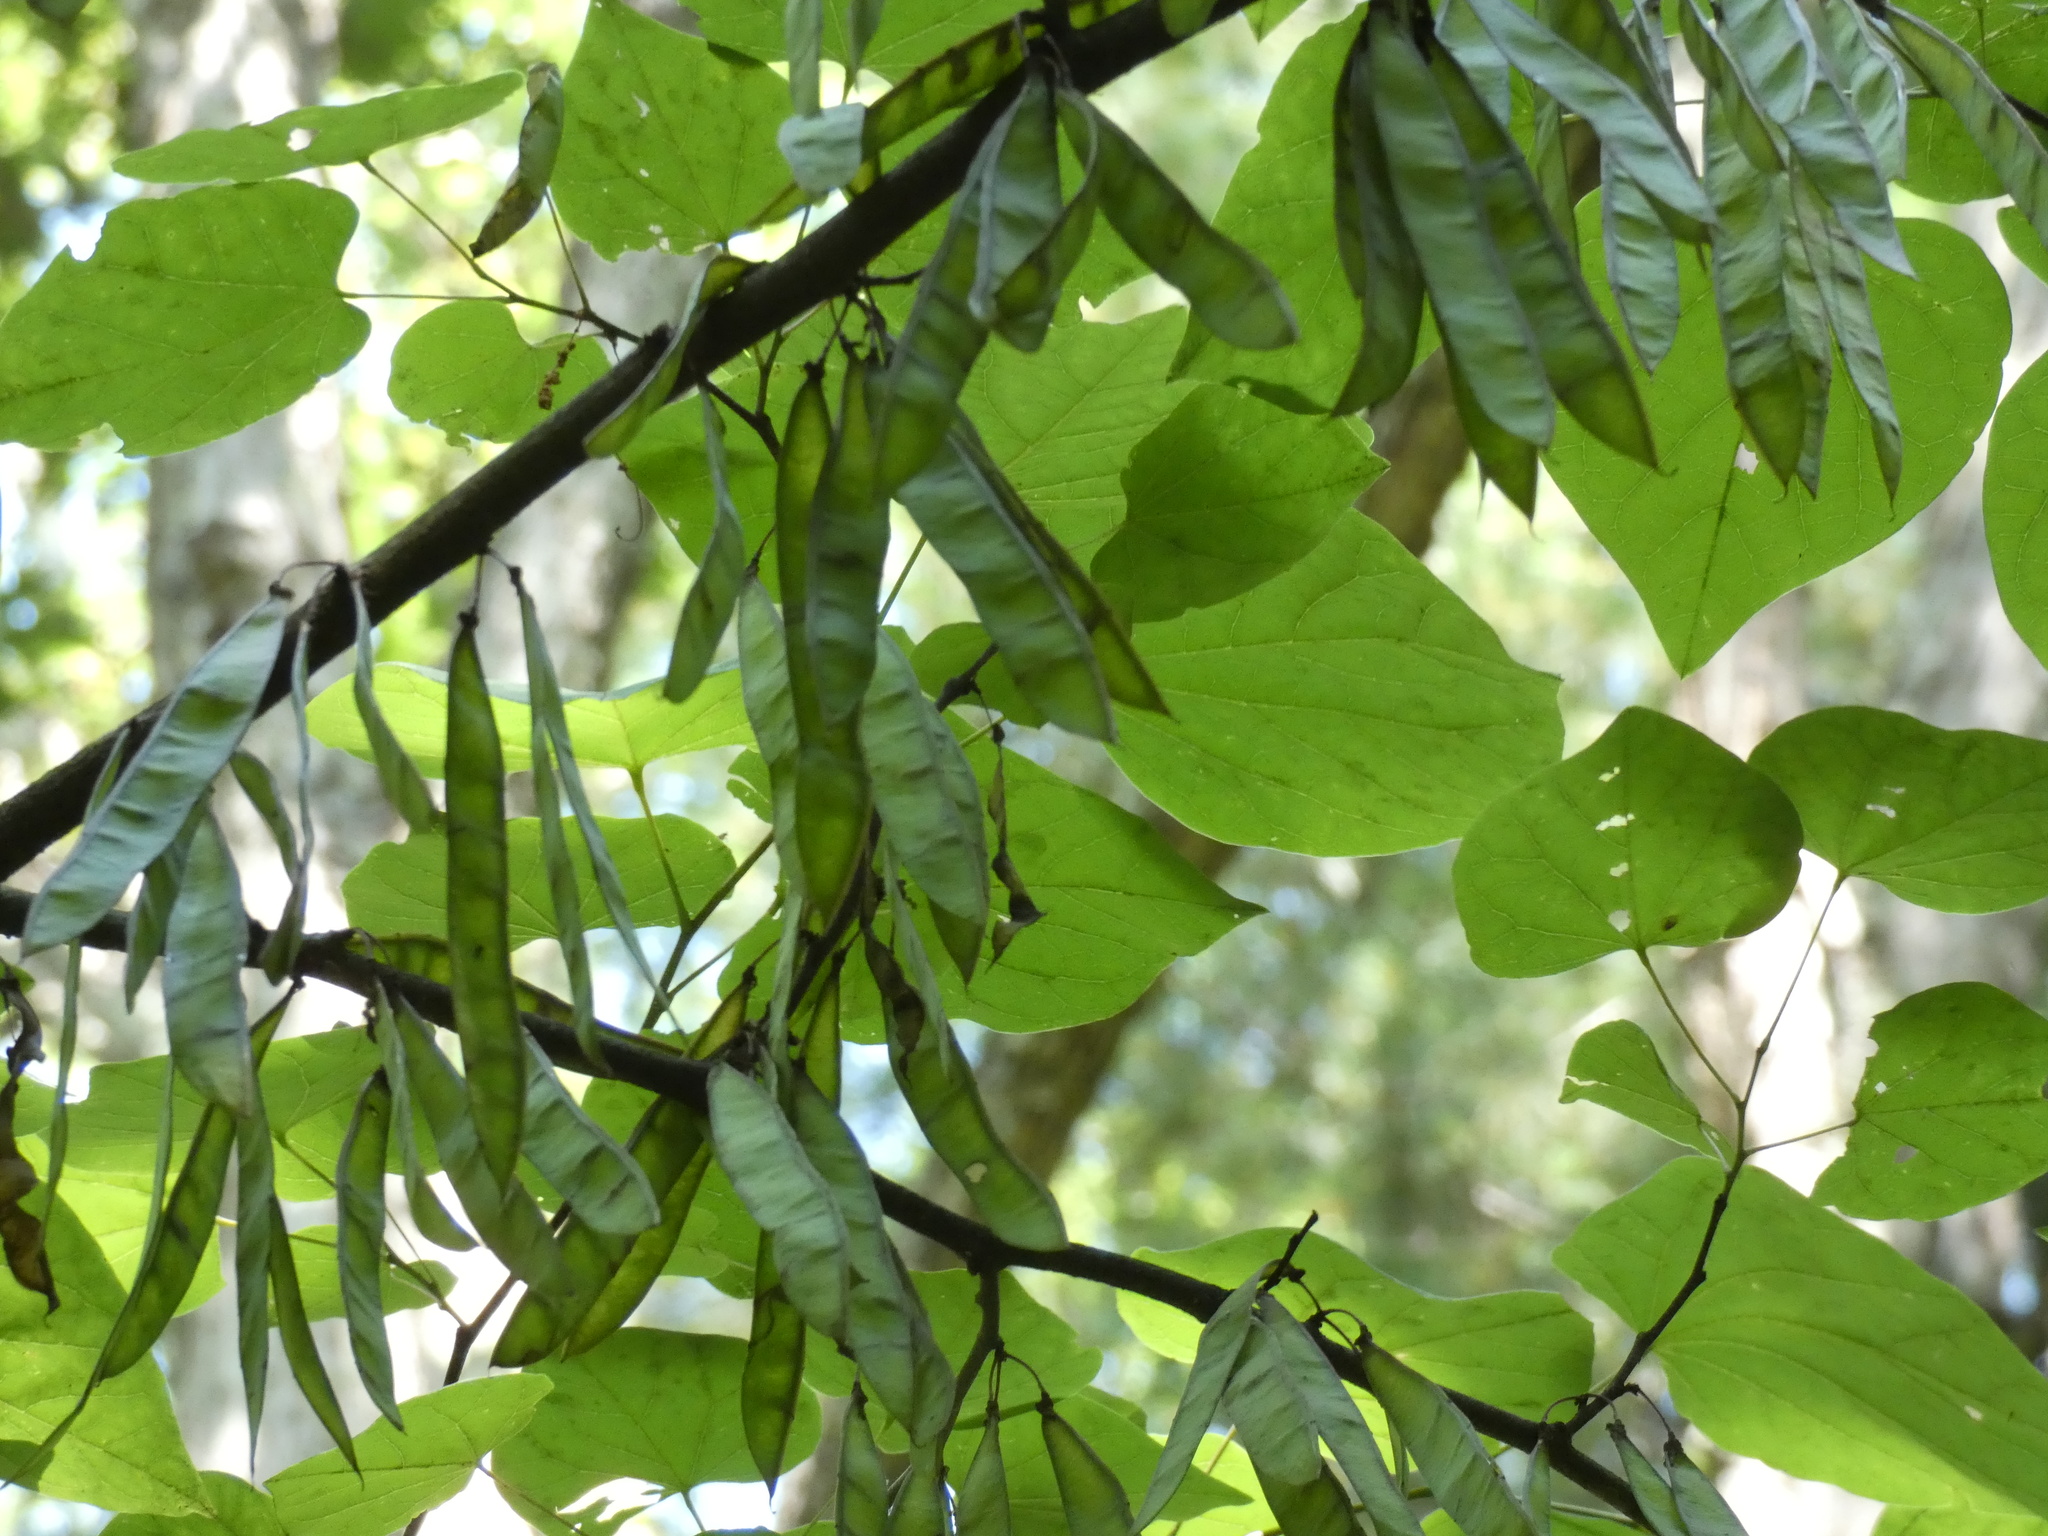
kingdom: Plantae
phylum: Tracheophyta
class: Magnoliopsida
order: Fabales
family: Fabaceae
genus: Cercis
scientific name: Cercis canadensis
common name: Eastern redbud
